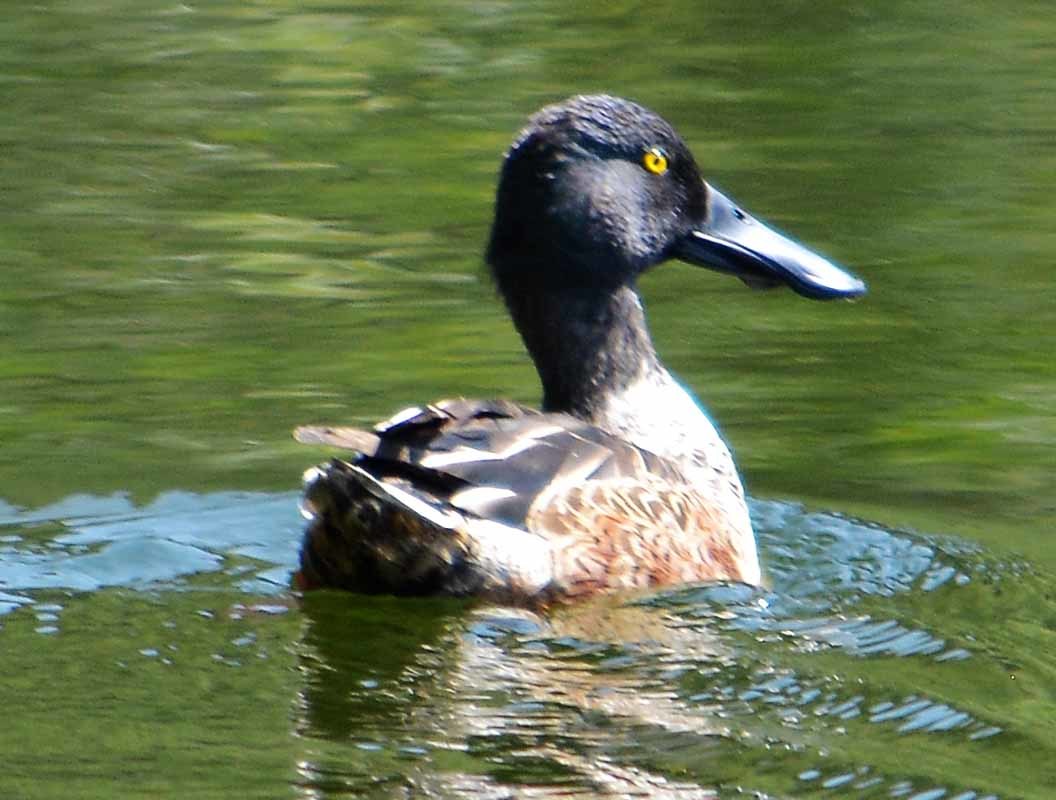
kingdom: Animalia
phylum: Chordata
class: Aves
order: Anseriformes
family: Anatidae
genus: Spatula
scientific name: Spatula clypeata
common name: Northern shoveler
